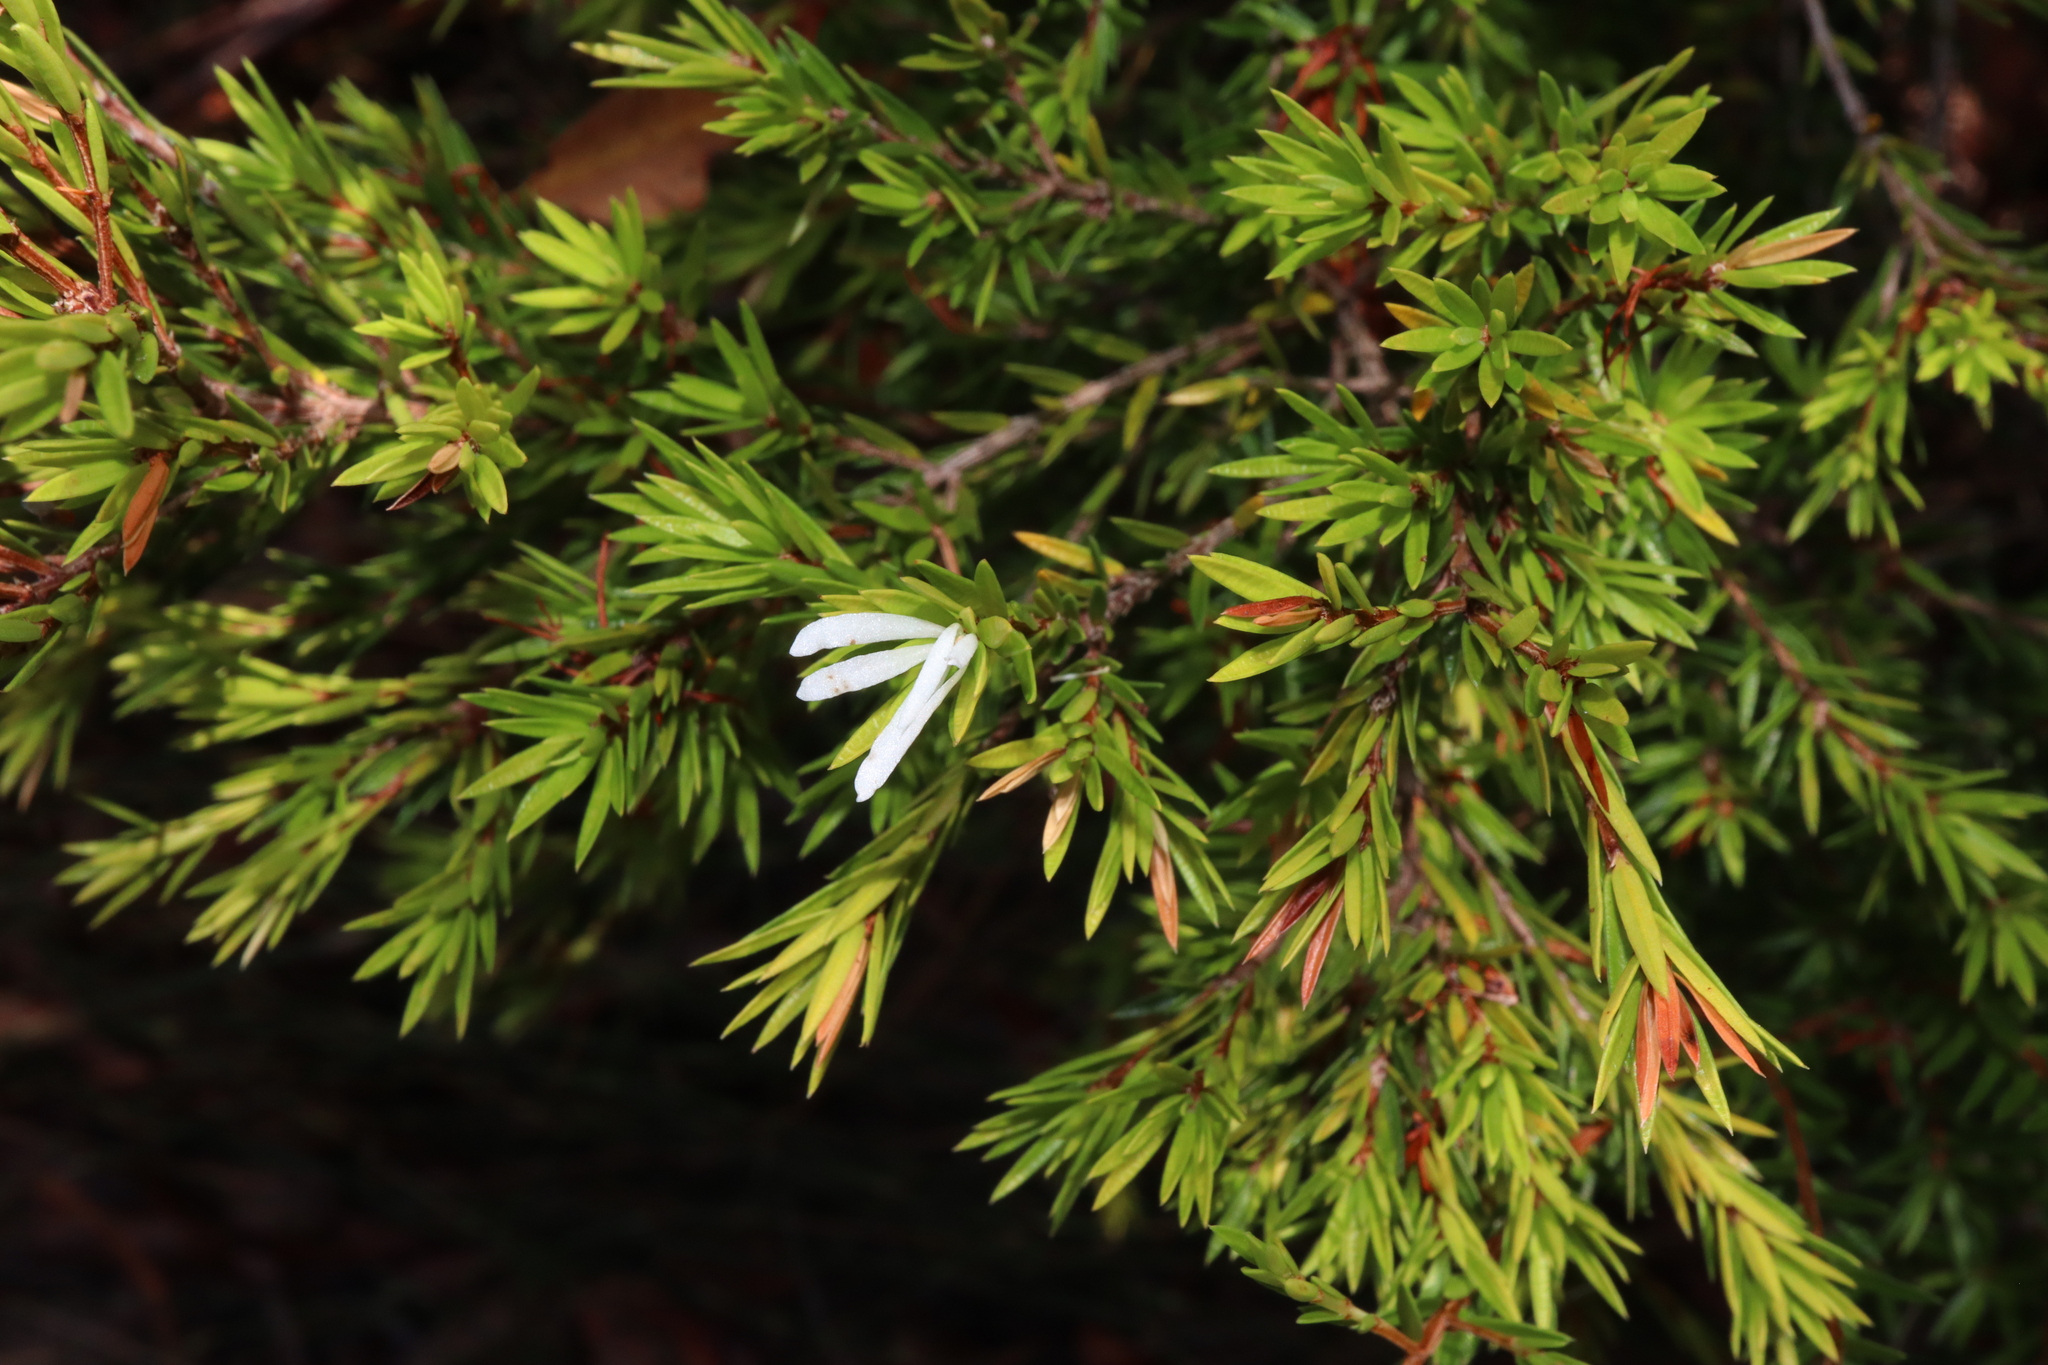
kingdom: Plantae
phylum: Tracheophyta
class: Magnoliopsida
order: Malpighiales
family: Picrodendraceae
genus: Pseudanthus
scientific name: Pseudanthus pimeleoides
